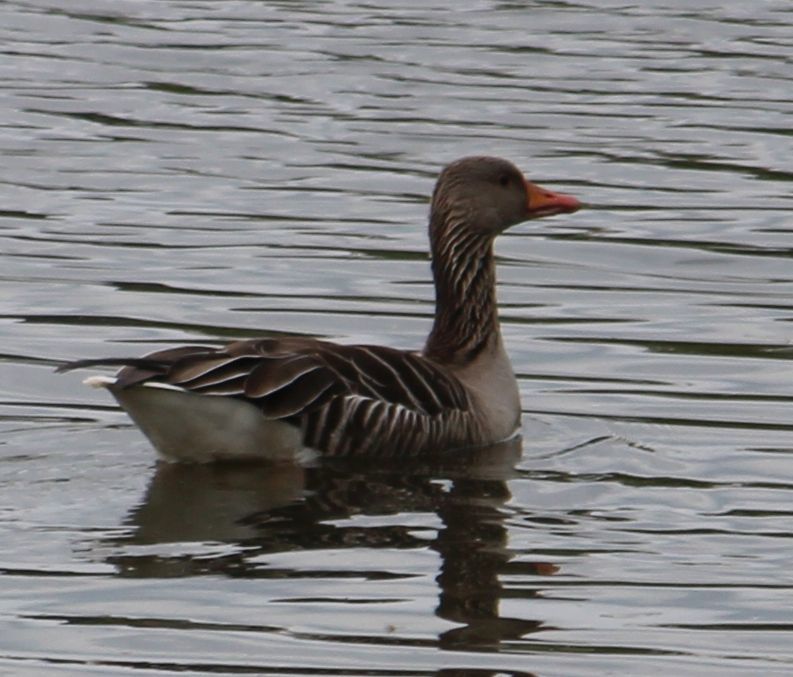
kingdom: Animalia
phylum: Chordata
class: Aves
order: Anseriformes
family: Anatidae
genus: Anser
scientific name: Anser anser
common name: Greylag goose
